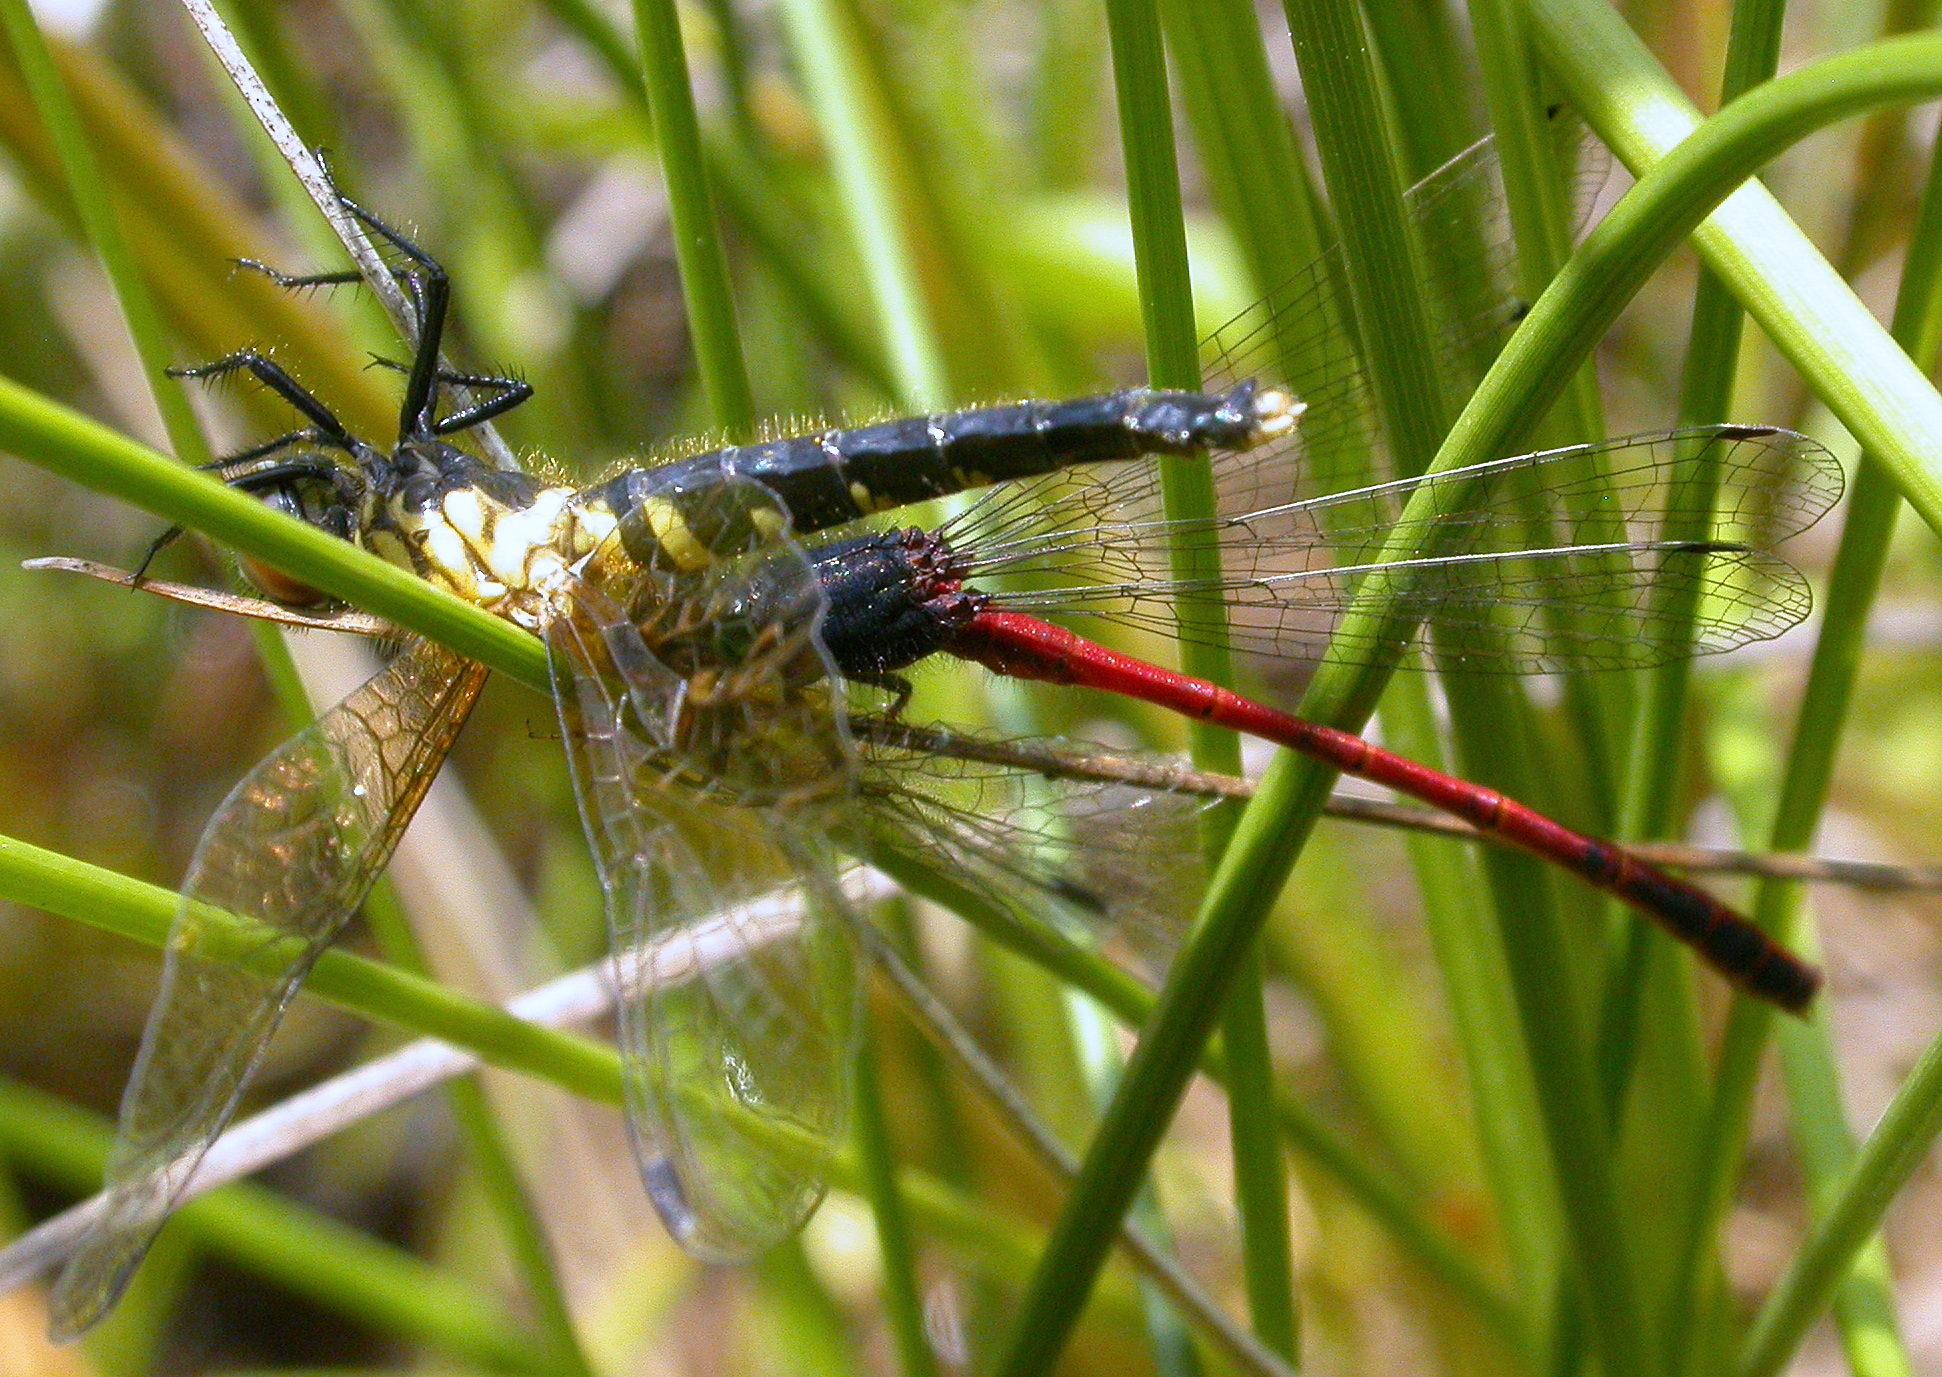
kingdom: Animalia
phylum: Arthropoda
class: Insecta
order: Odonata
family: Coenagrionidae
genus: Amphiagrion
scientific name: Amphiagrion saucium
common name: Eastern red damsel
